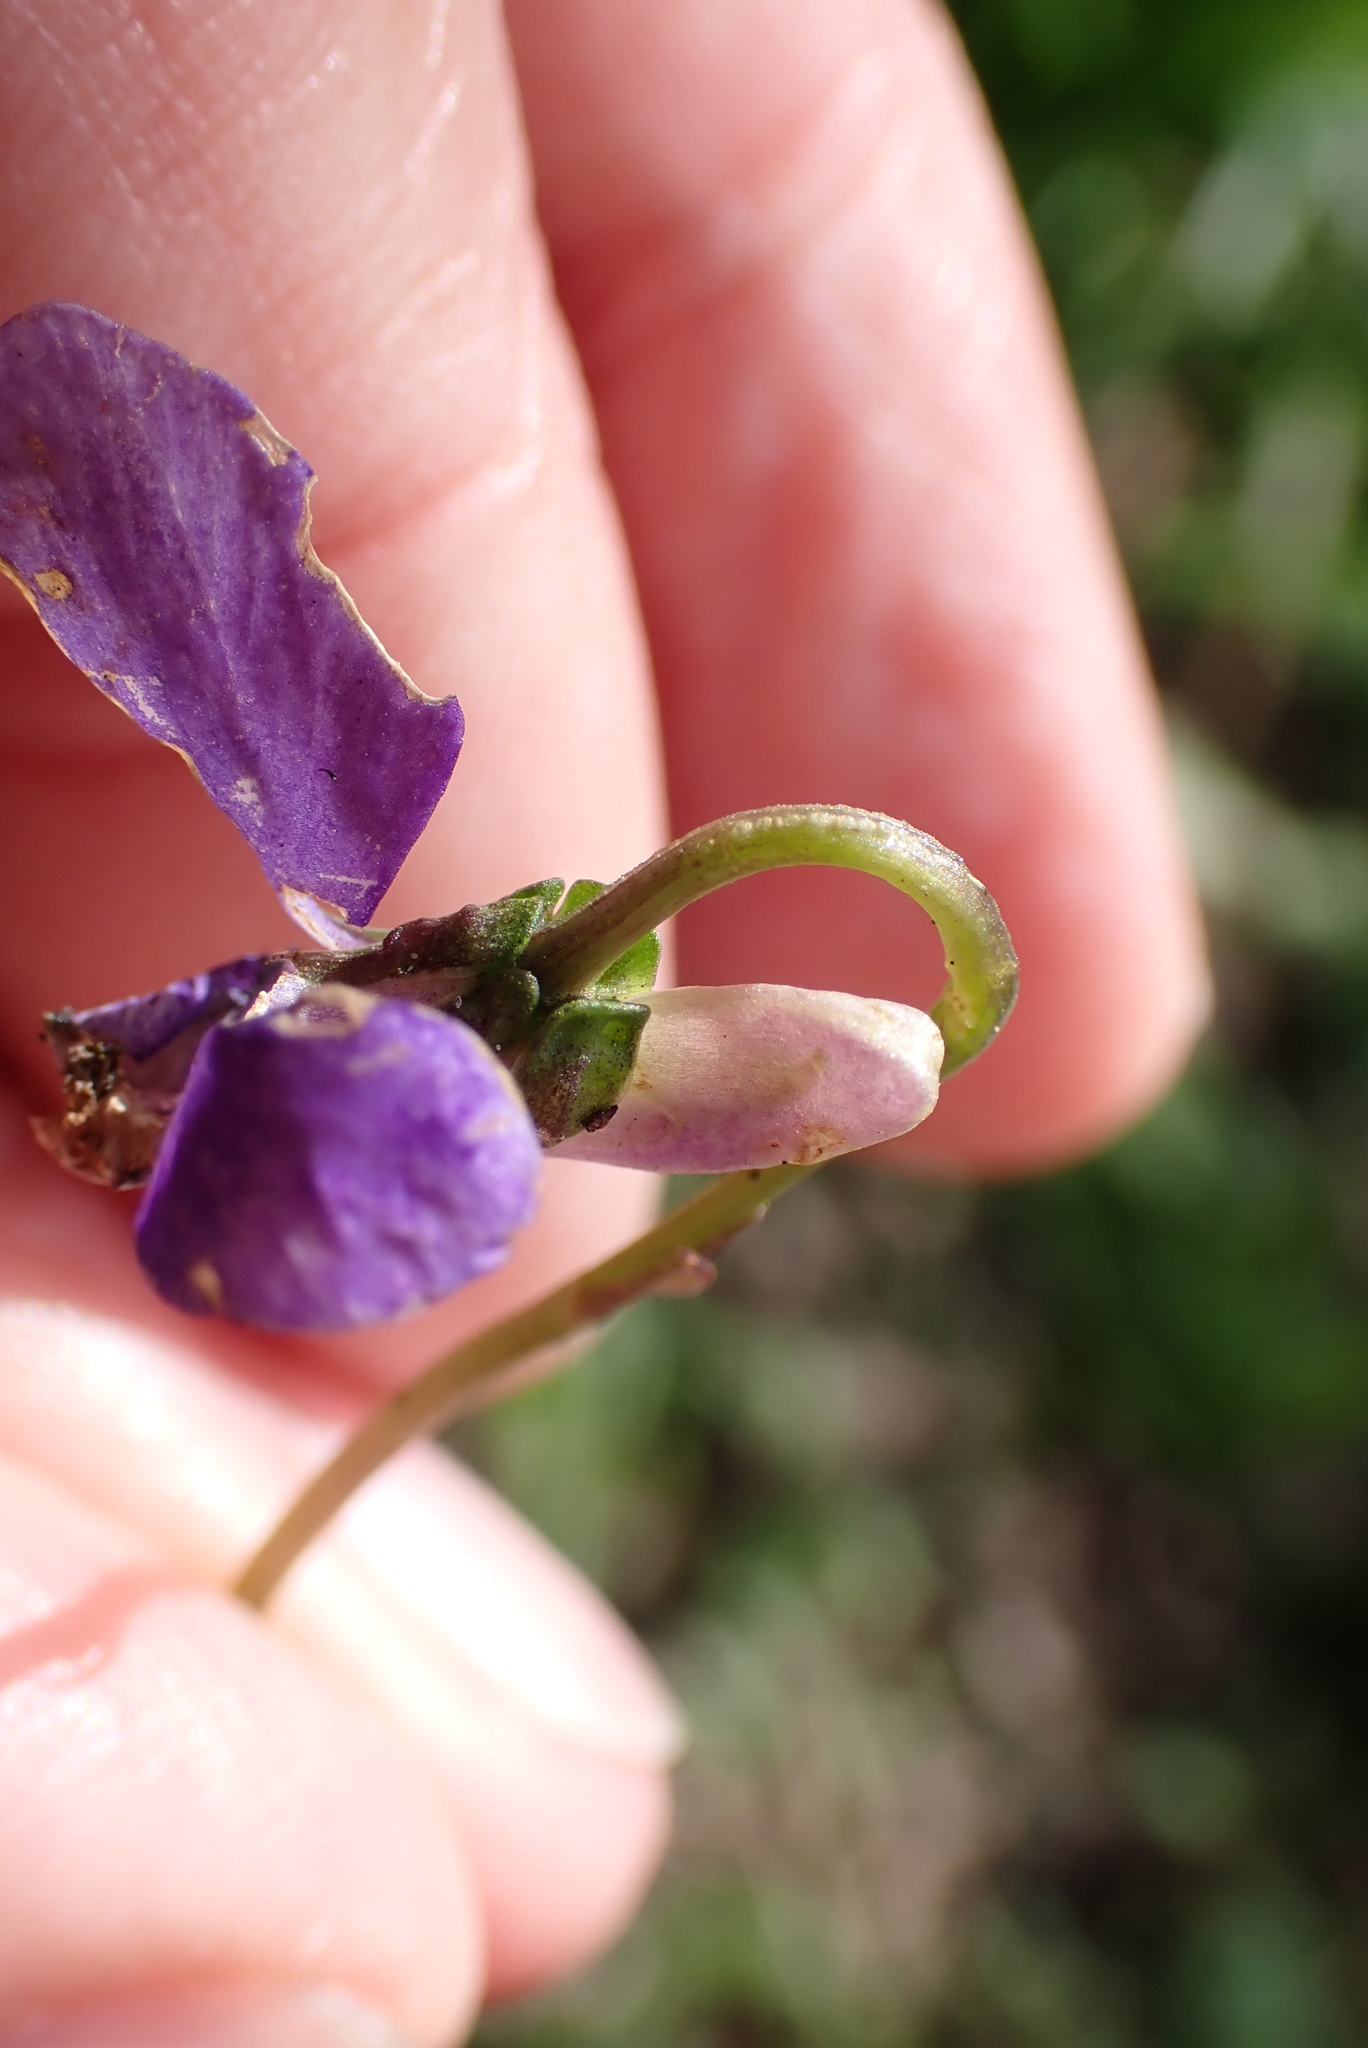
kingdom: Plantae
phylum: Tracheophyta
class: Magnoliopsida
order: Malpighiales
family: Violaceae
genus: Viola
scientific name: Viola riviniana
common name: Common dog-violet
